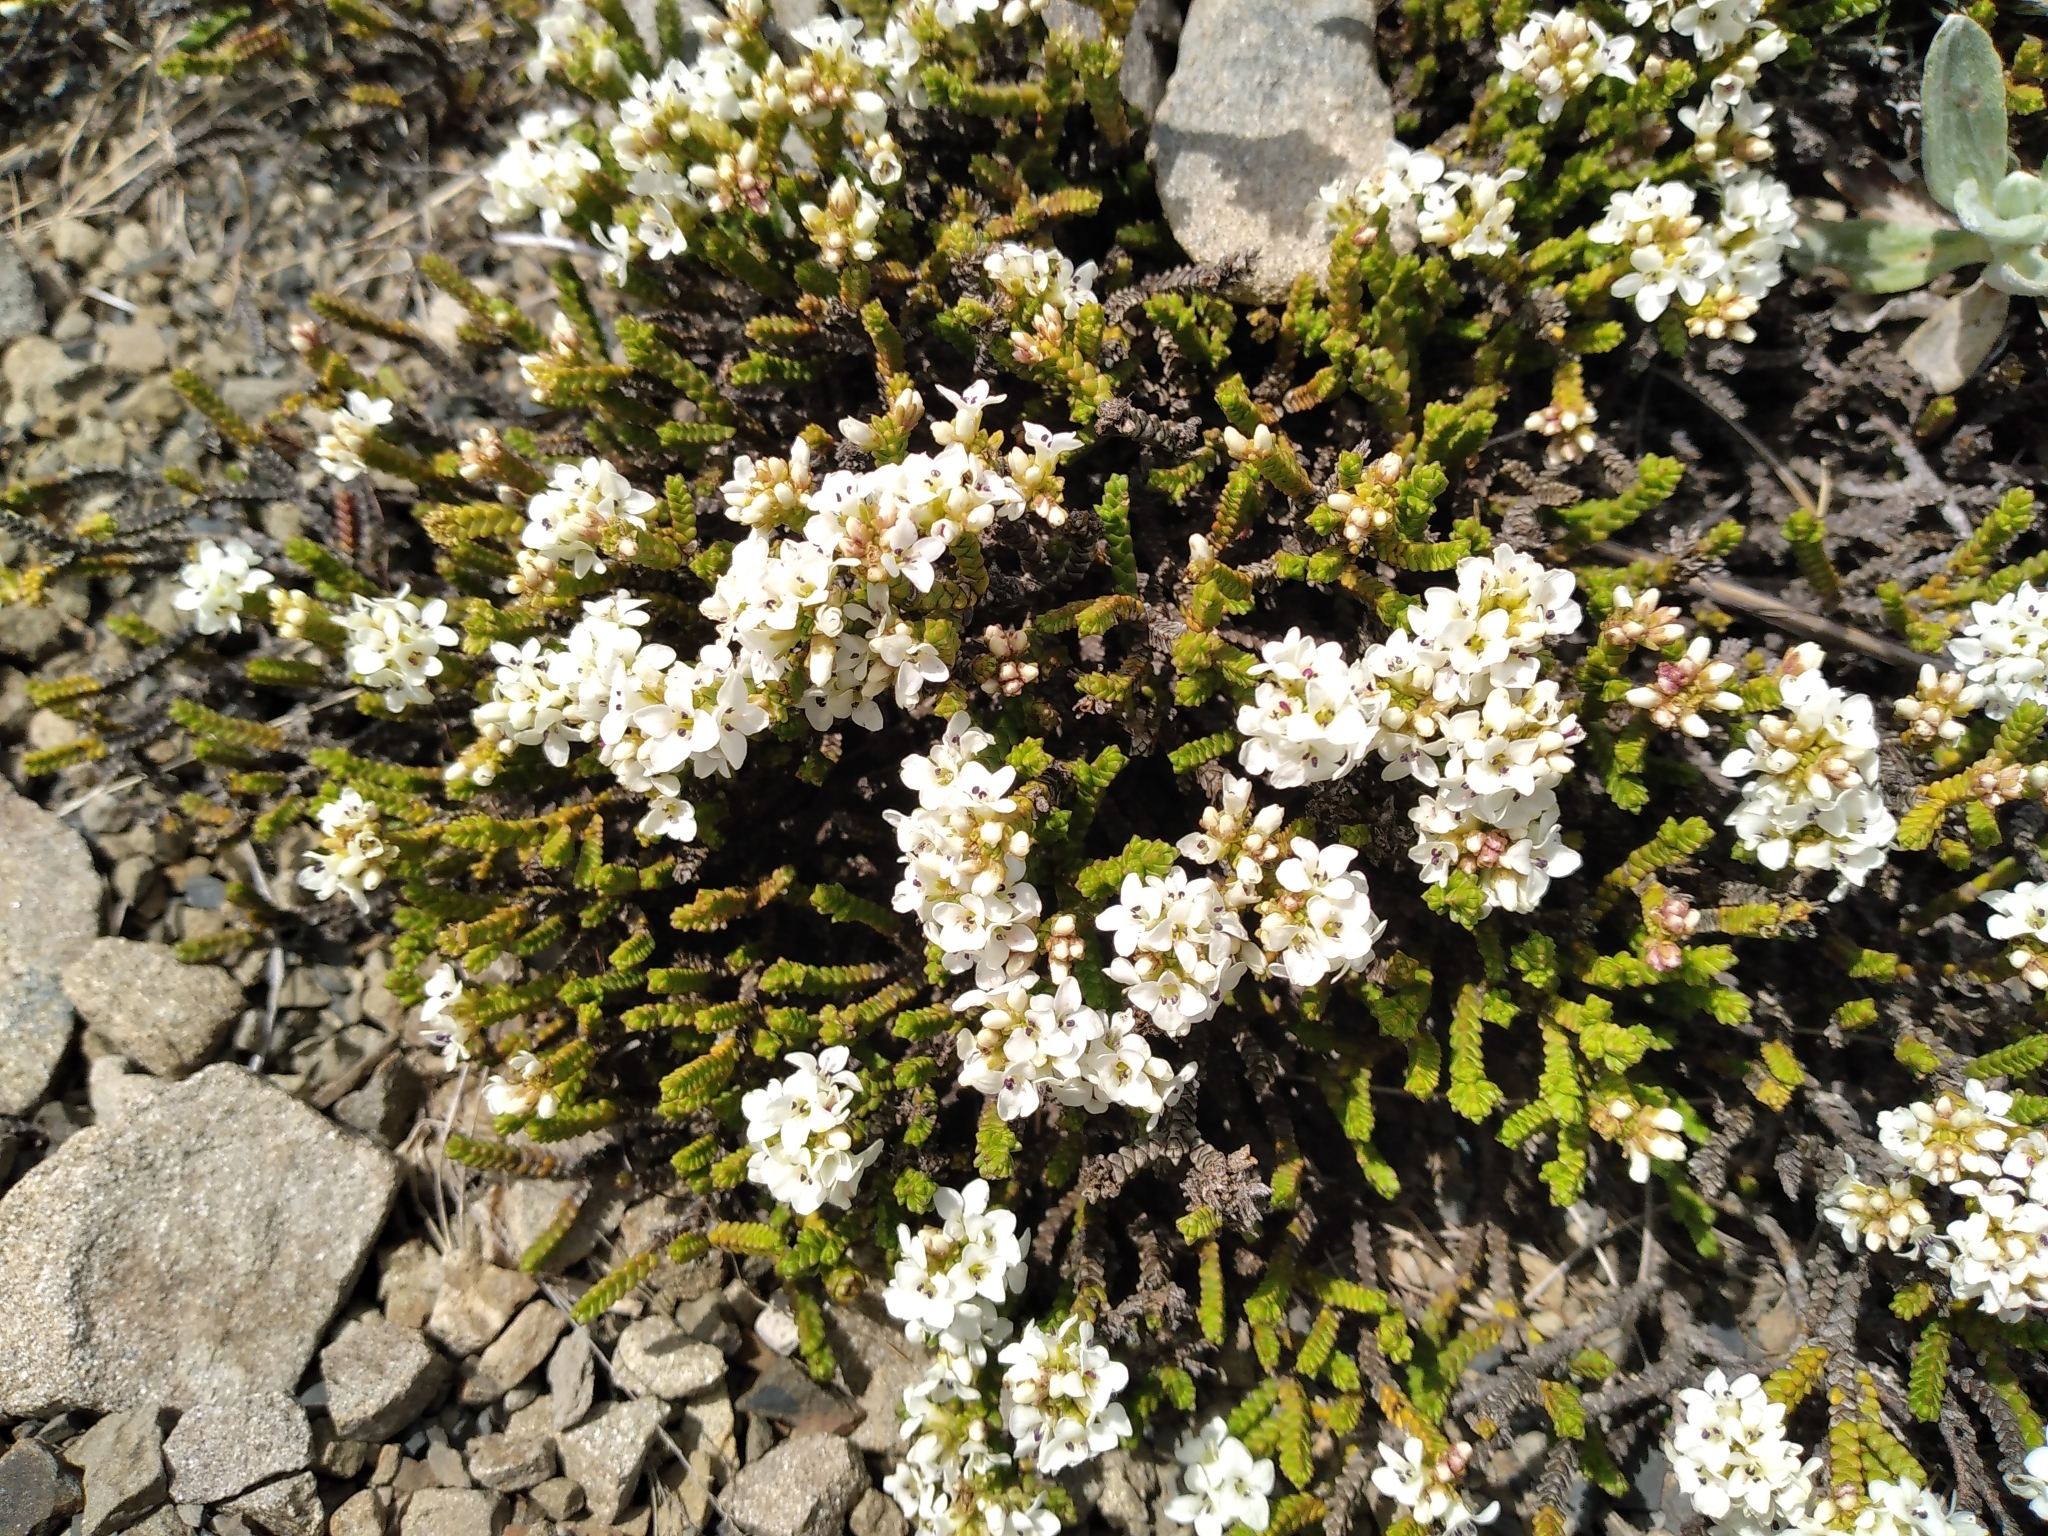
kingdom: Plantae
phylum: Tracheophyta
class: Magnoliopsida
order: Lamiales
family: Plantaginaceae
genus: Veronica
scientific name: Veronica tumida
